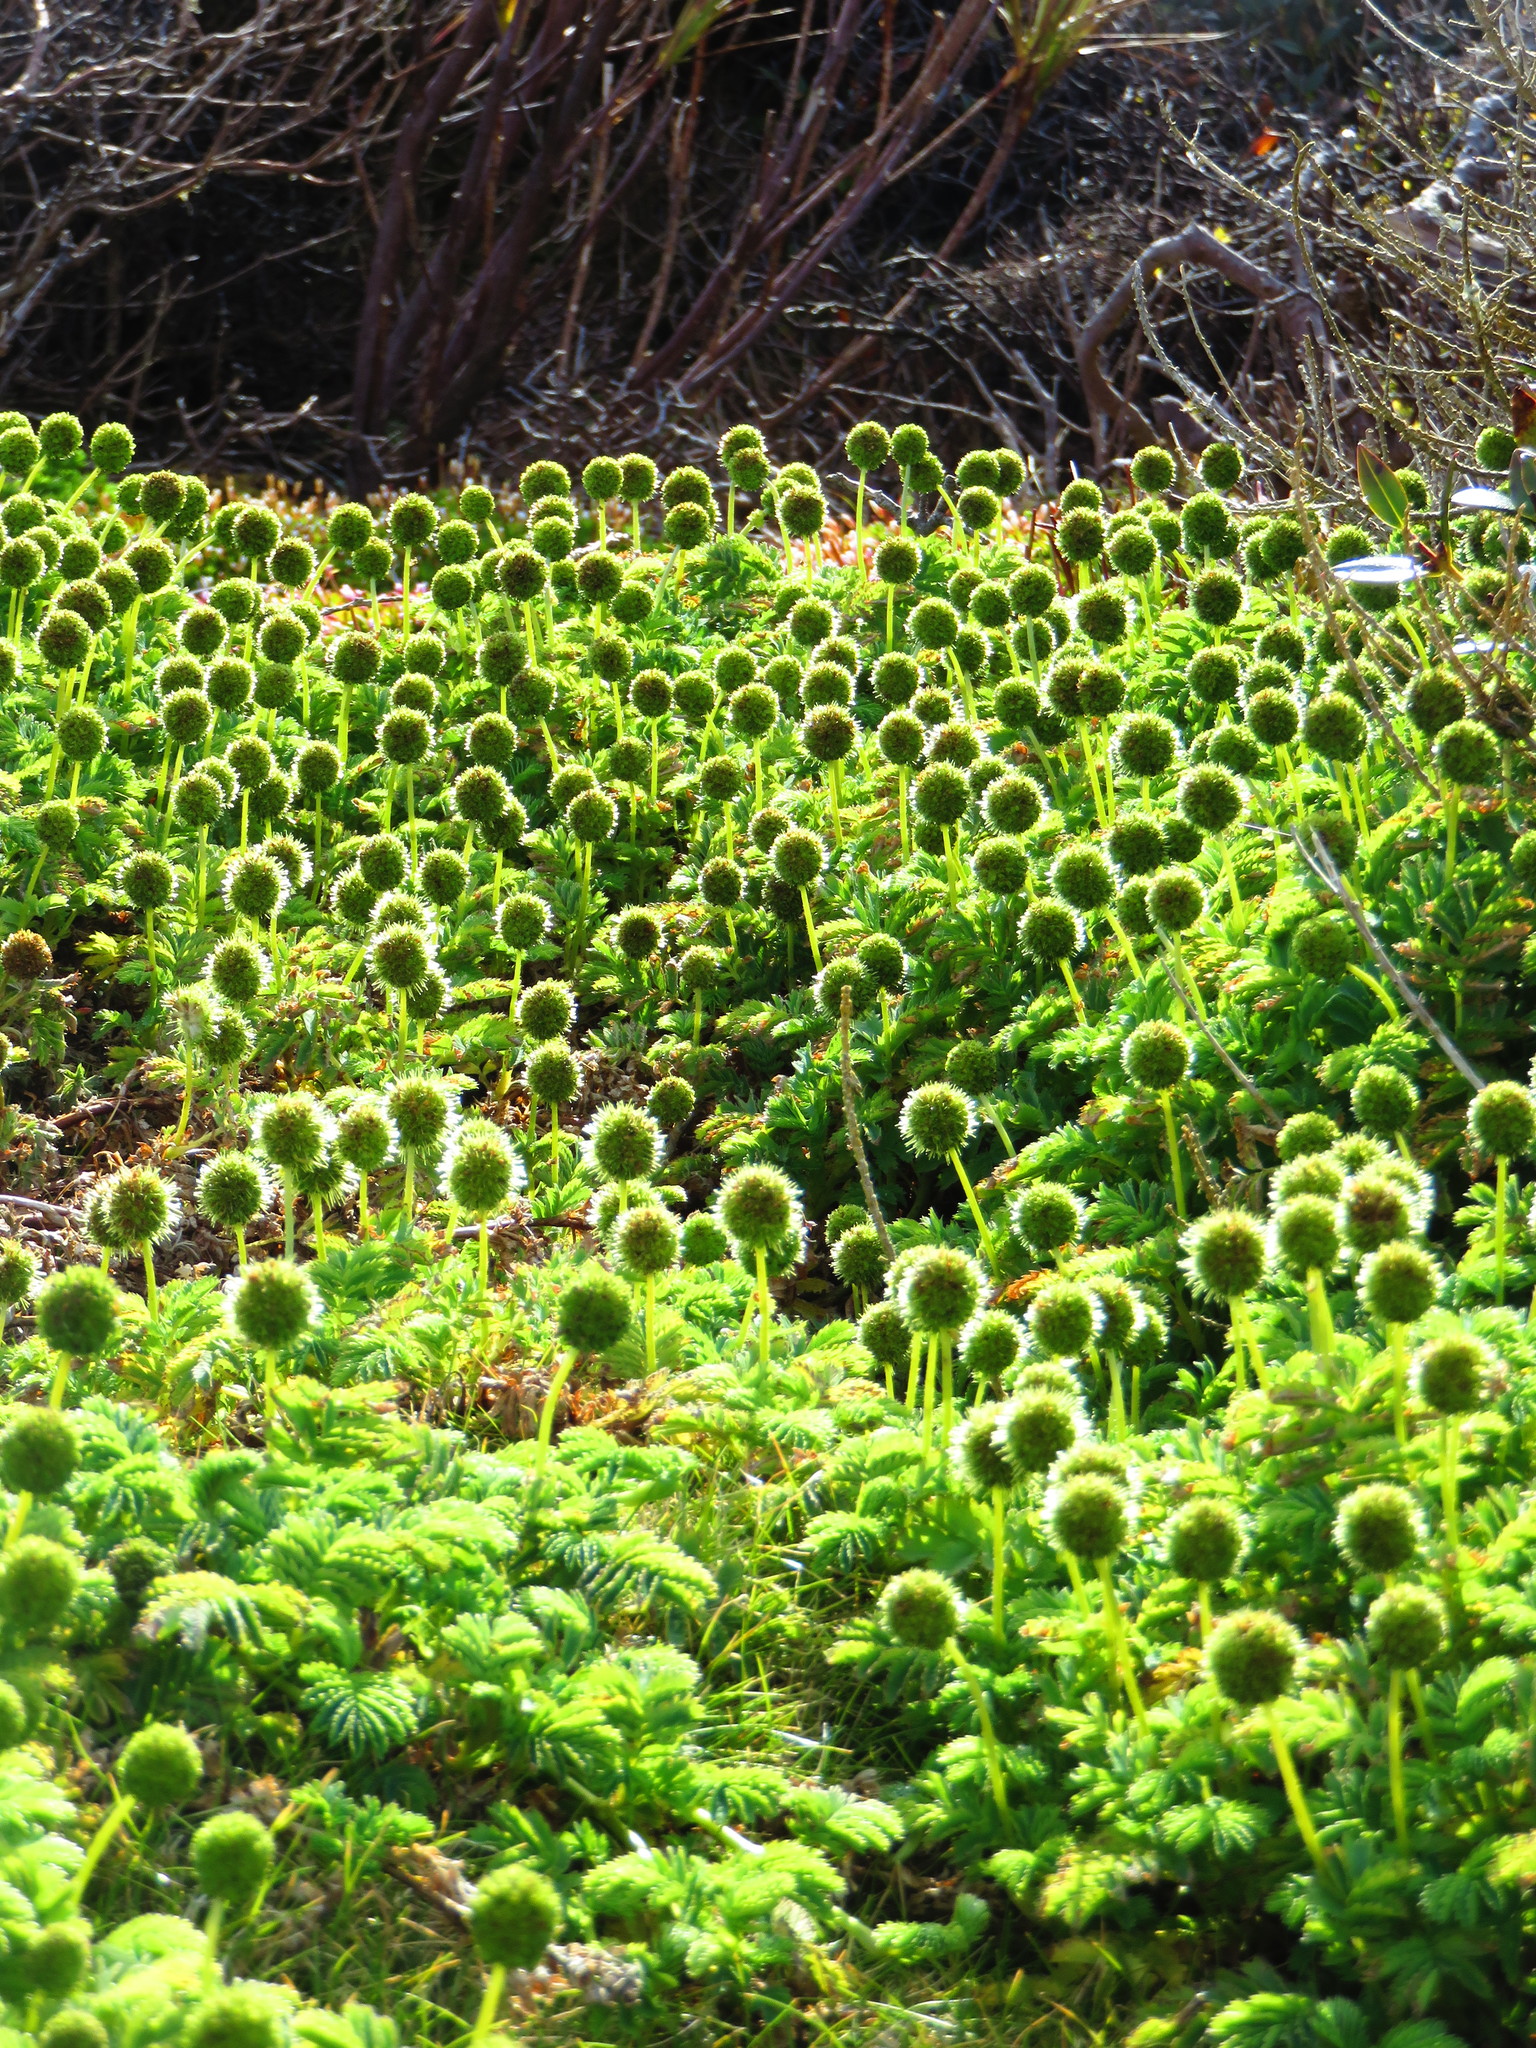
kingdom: Plantae
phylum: Tracheophyta
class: Magnoliopsida
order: Rosales
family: Rosaceae
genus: Acaena
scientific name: Acaena minor
